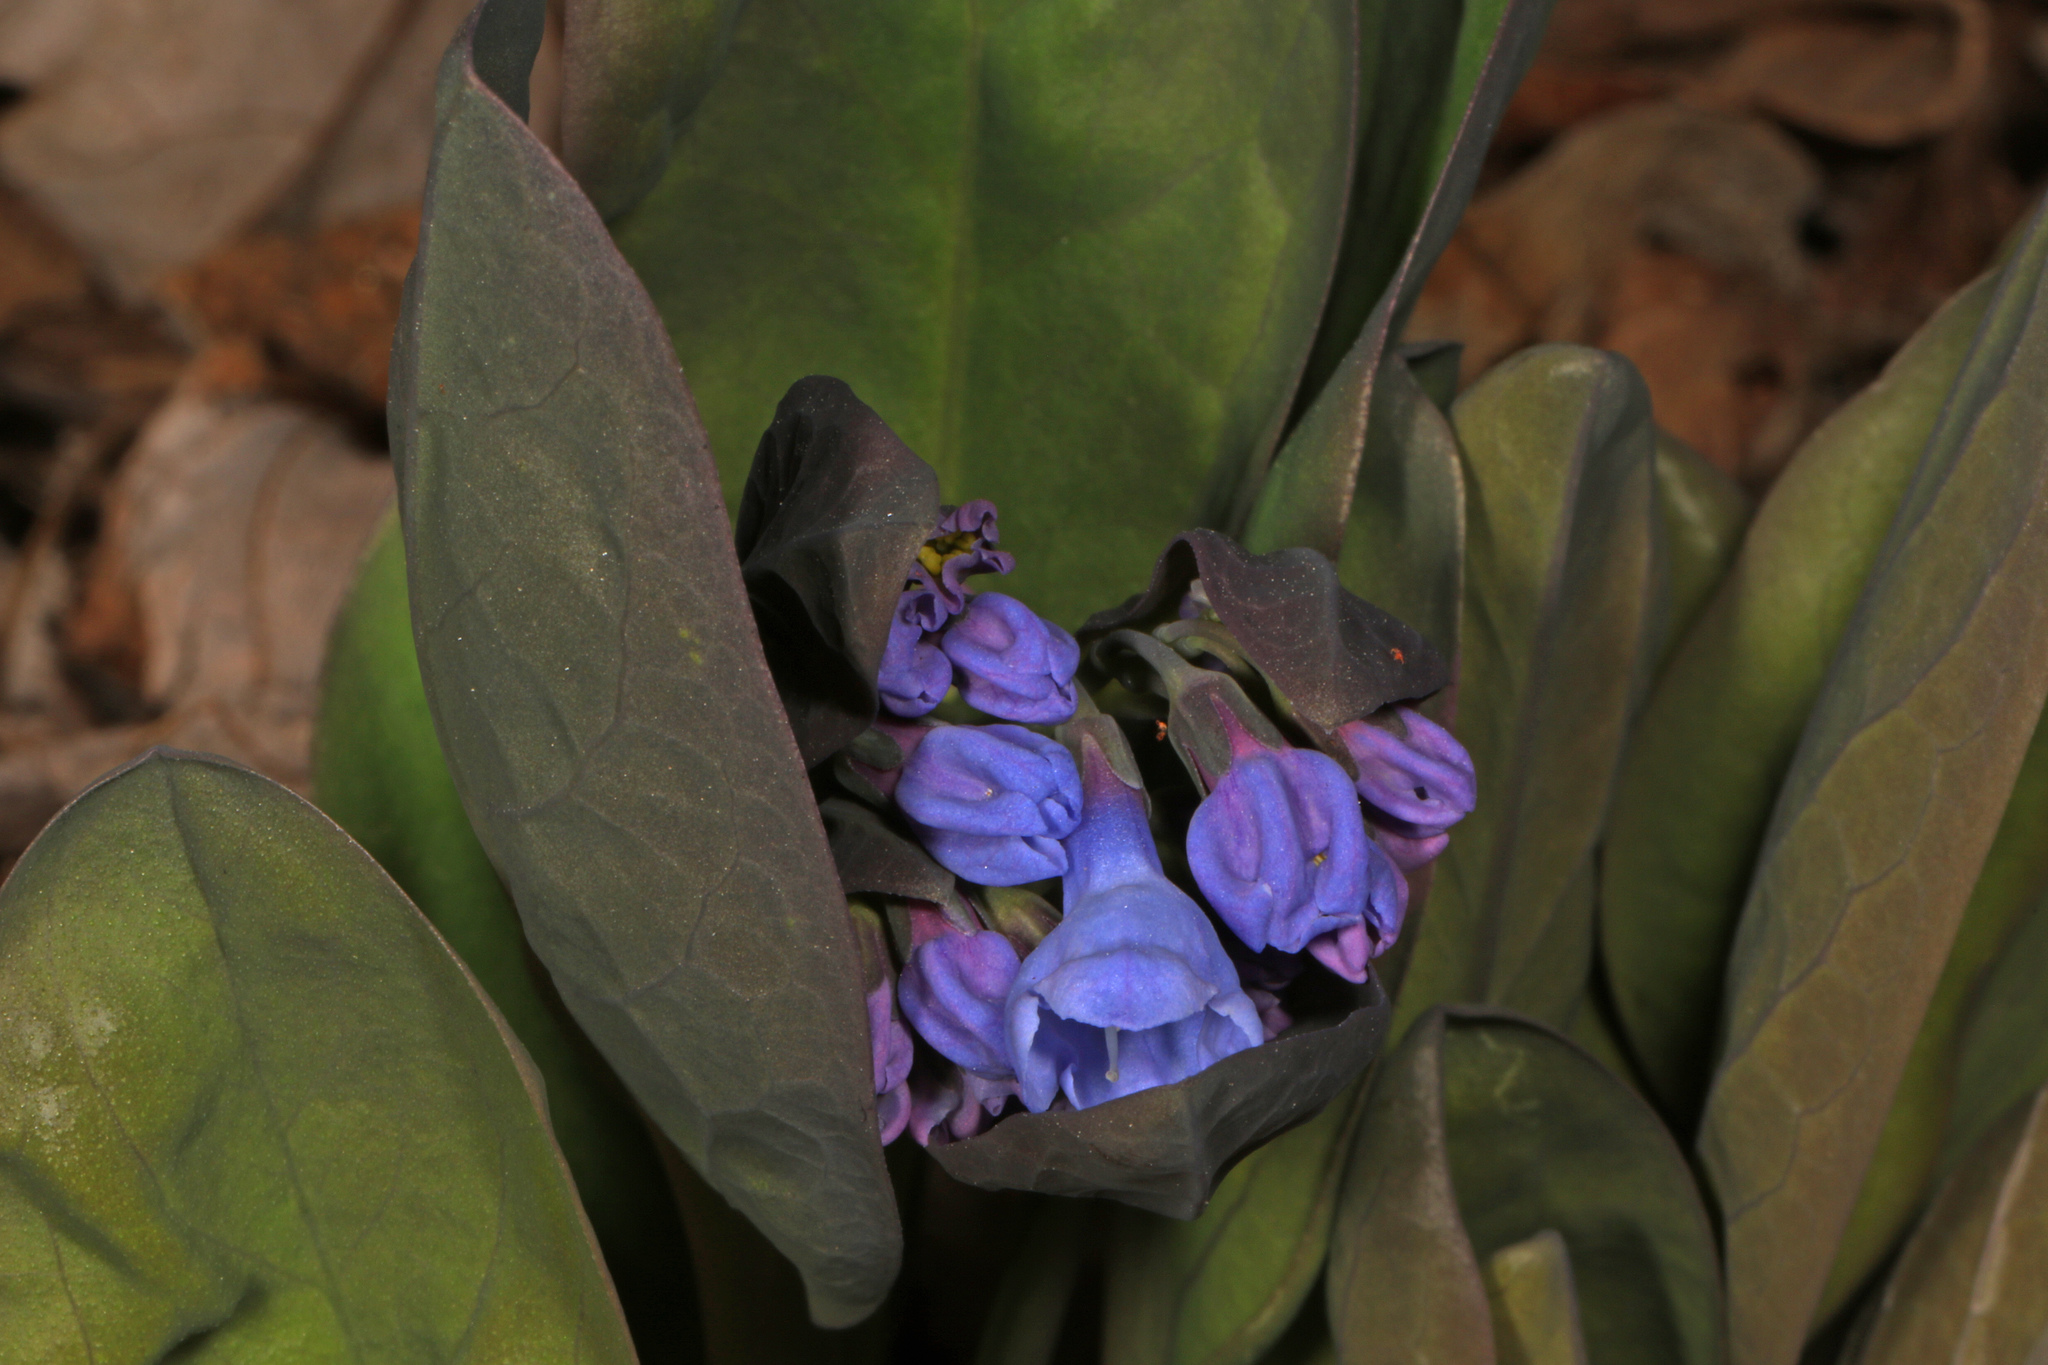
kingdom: Plantae
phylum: Tracheophyta
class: Magnoliopsida
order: Boraginales
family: Boraginaceae
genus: Mertensia
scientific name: Mertensia virginica
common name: Virginia bluebells
